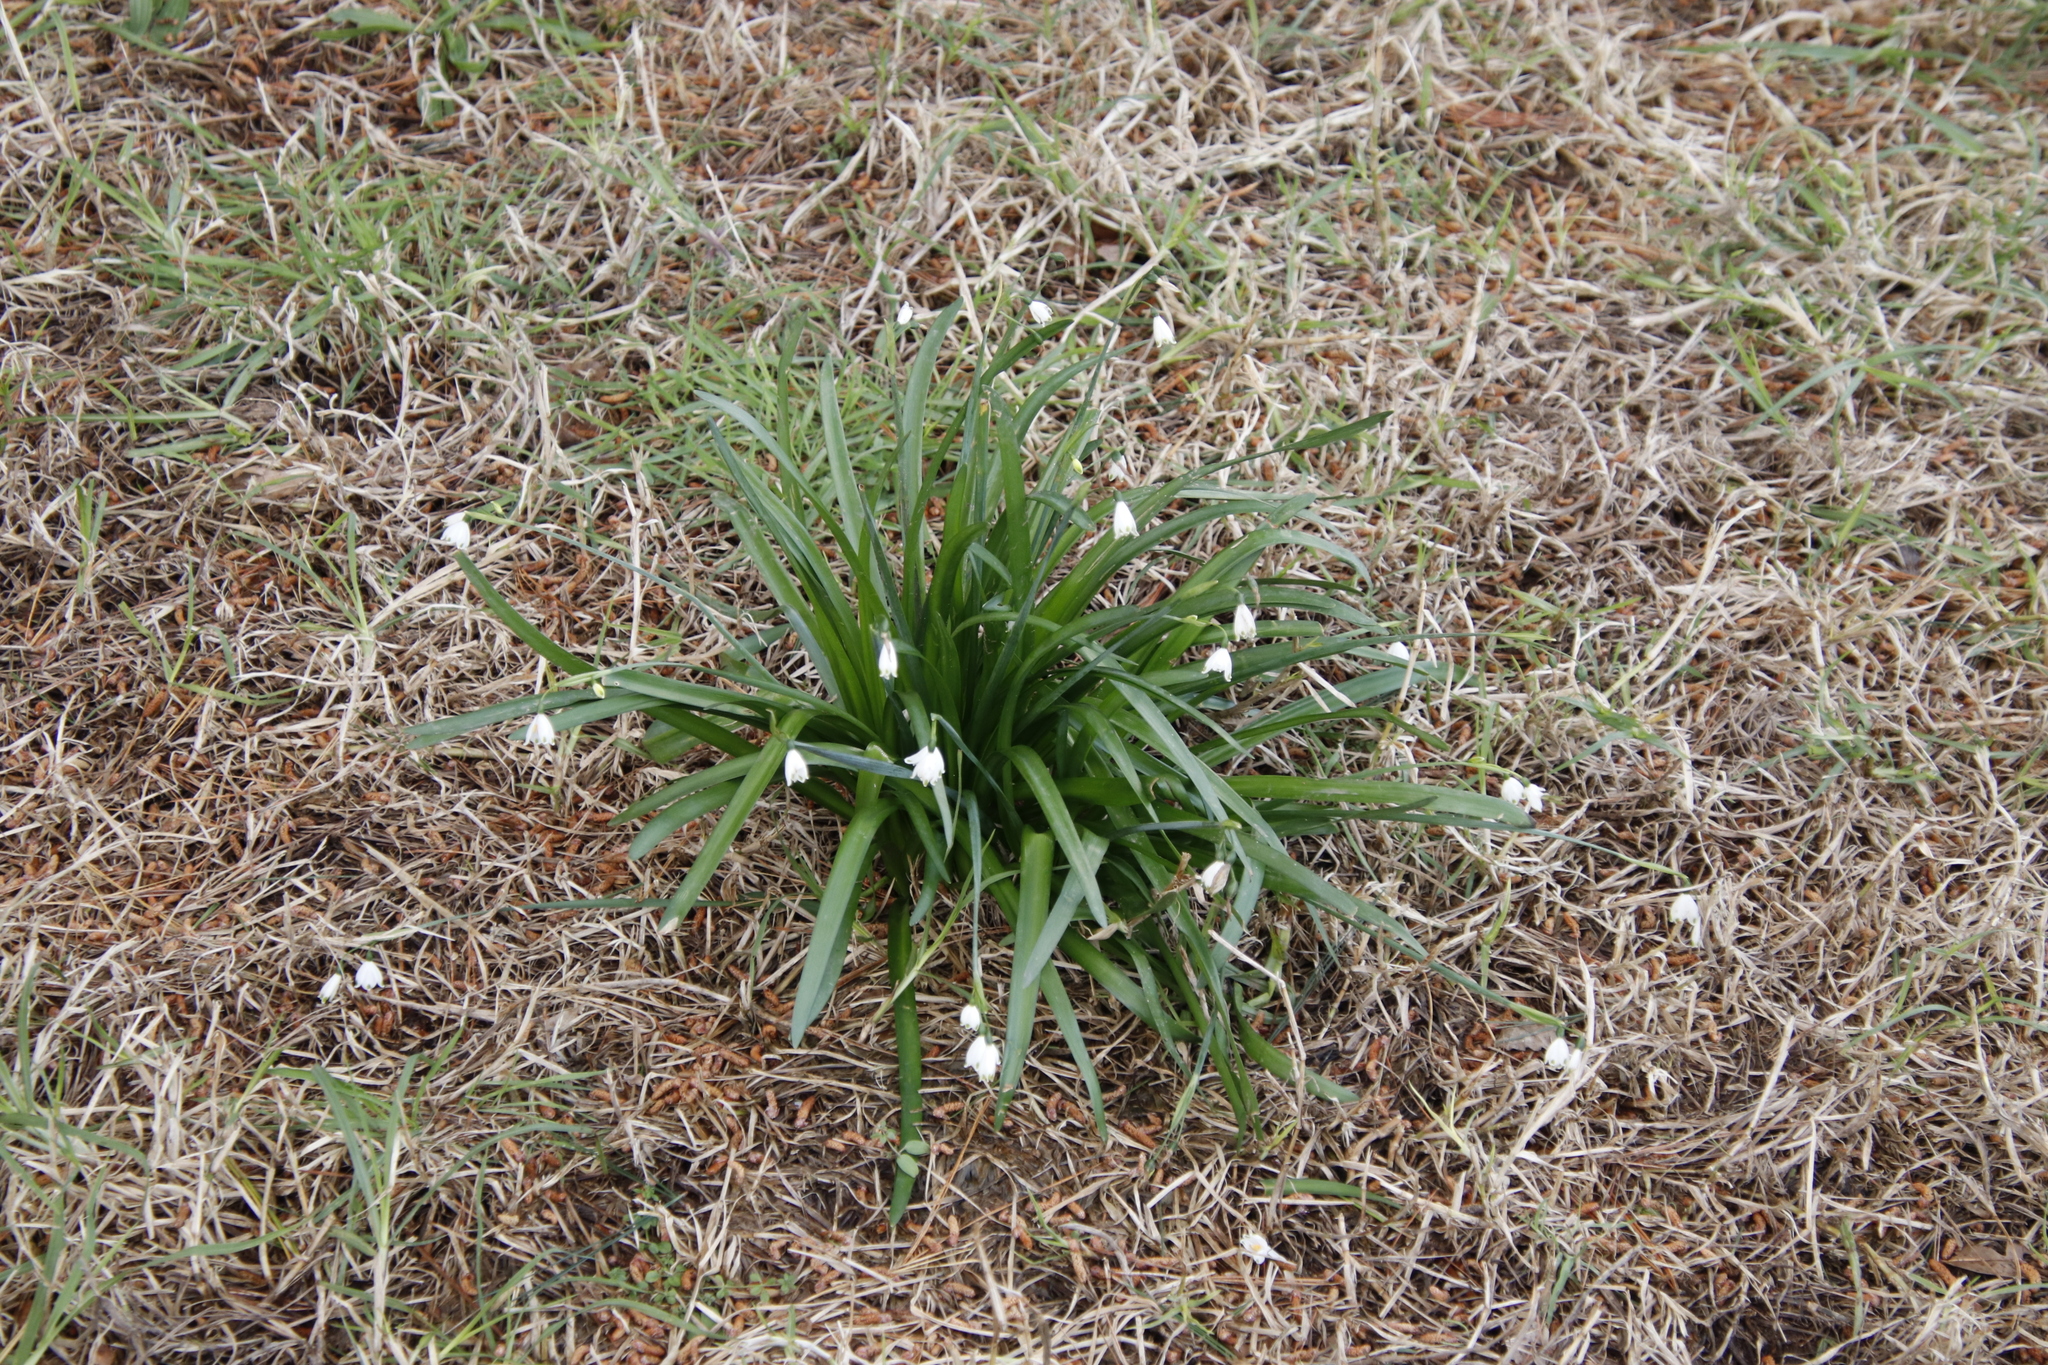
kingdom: Plantae
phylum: Tracheophyta
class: Liliopsida
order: Asparagales
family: Amaryllidaceae
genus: Leucojum
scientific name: Leucojum aestivum
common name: Summer snowflake
